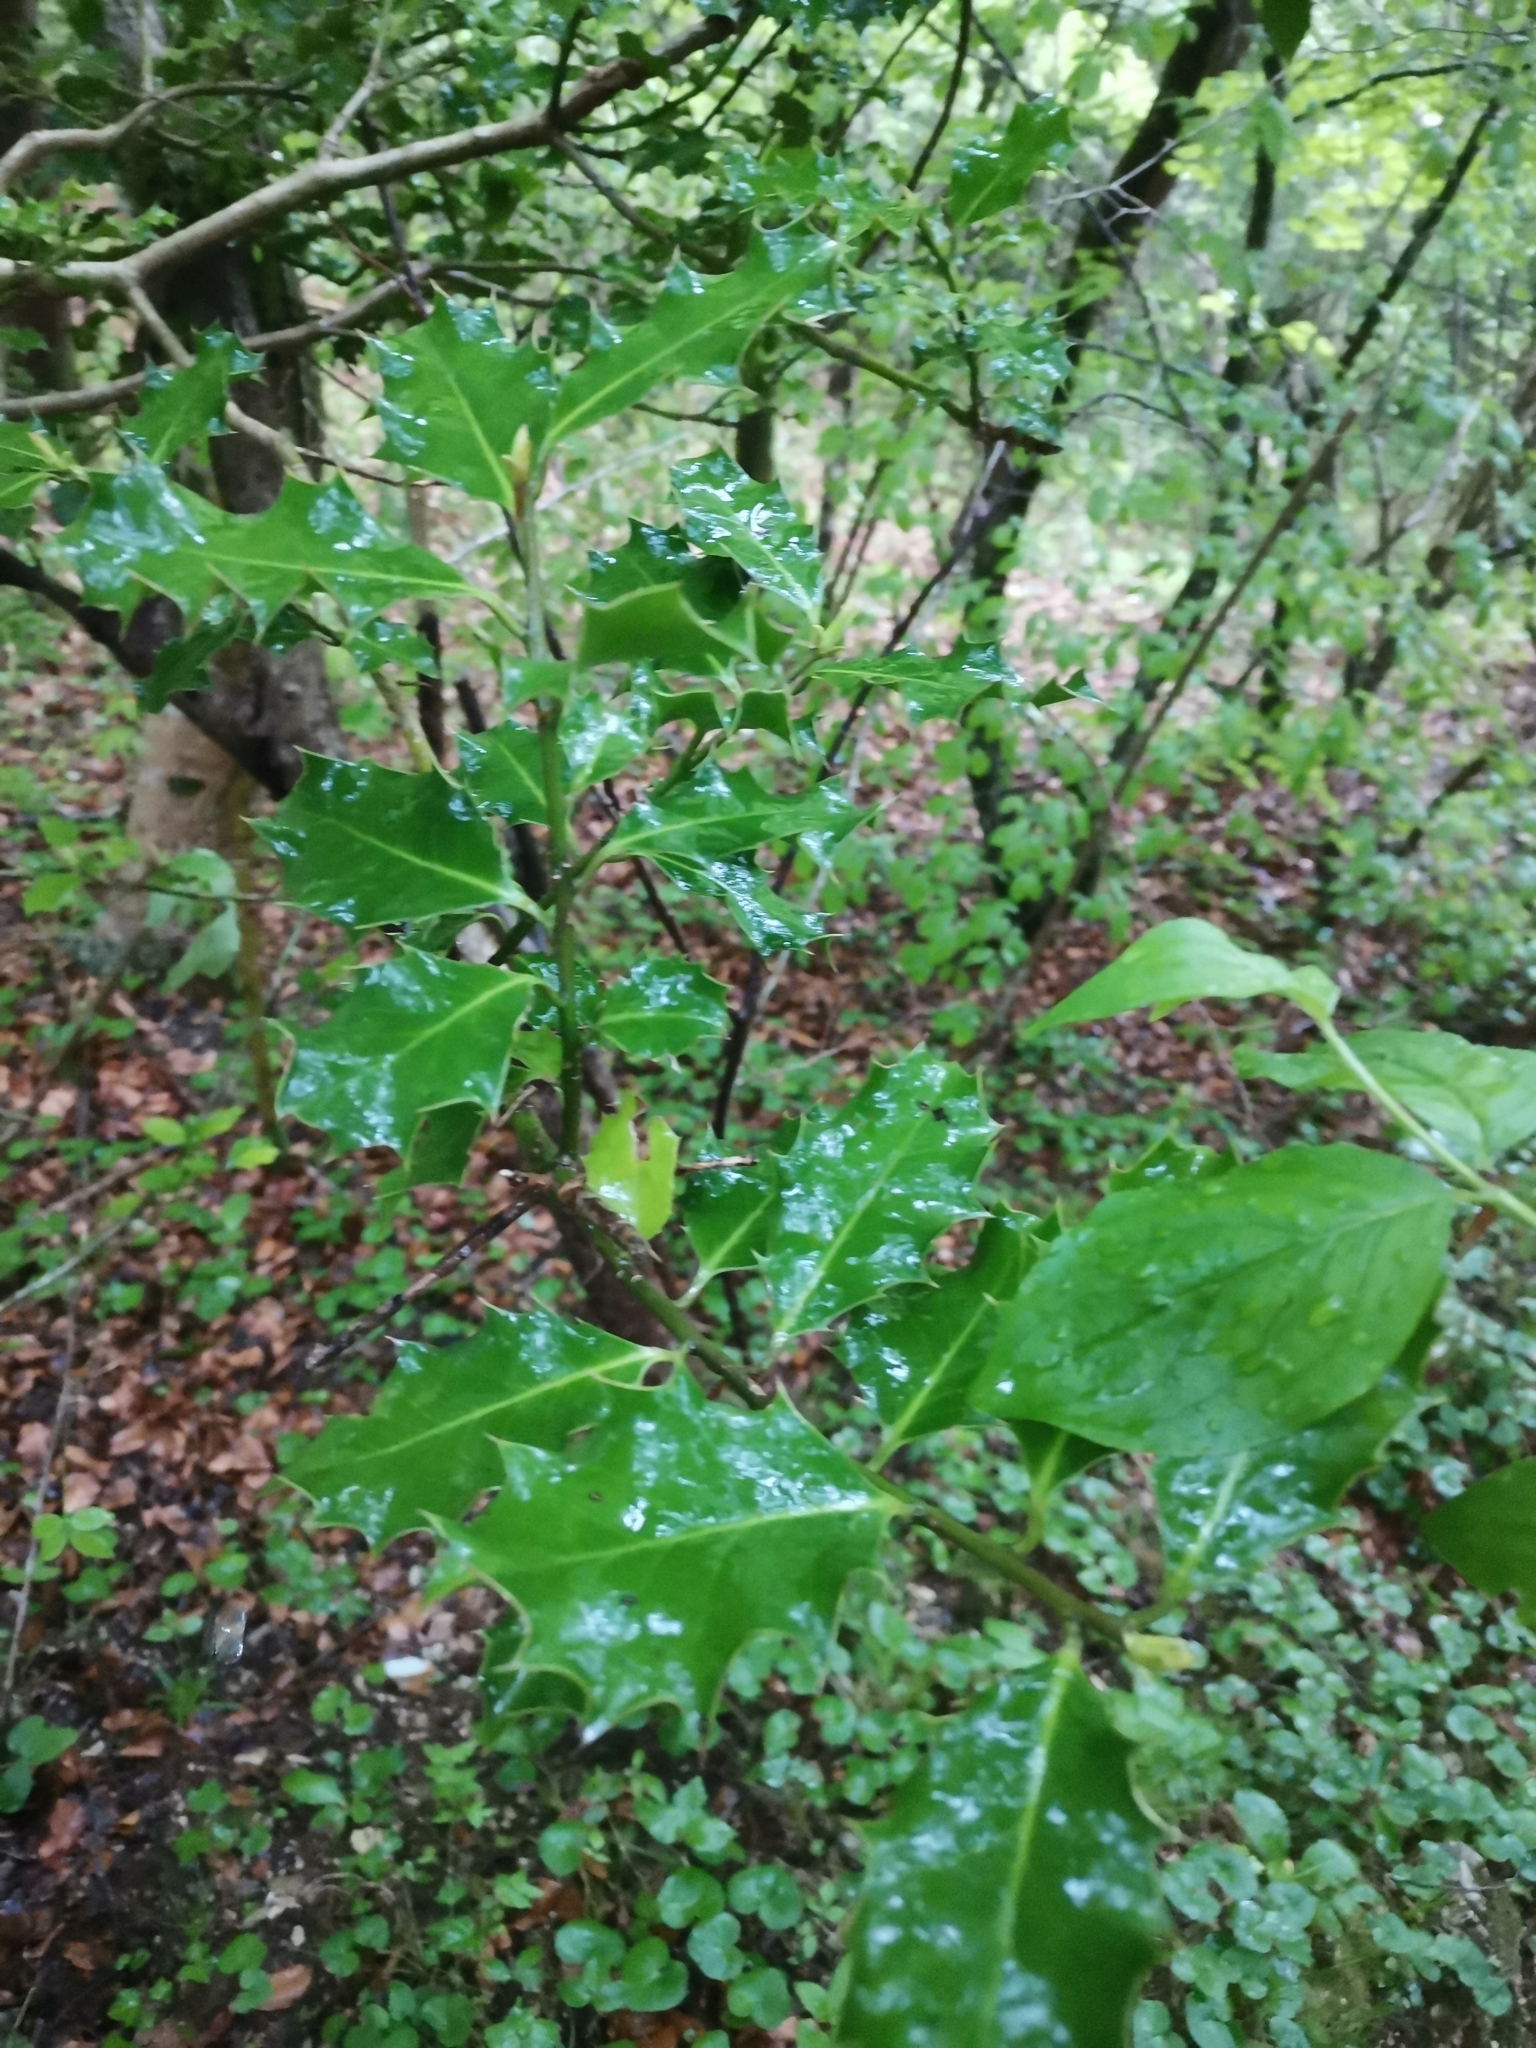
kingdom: Plantae
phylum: Tracheophyta
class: Magnoliopsida
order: Aquifoliales
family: Aquifoliaceae
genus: Ilex
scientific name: Ilex aquifolium
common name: English holly
